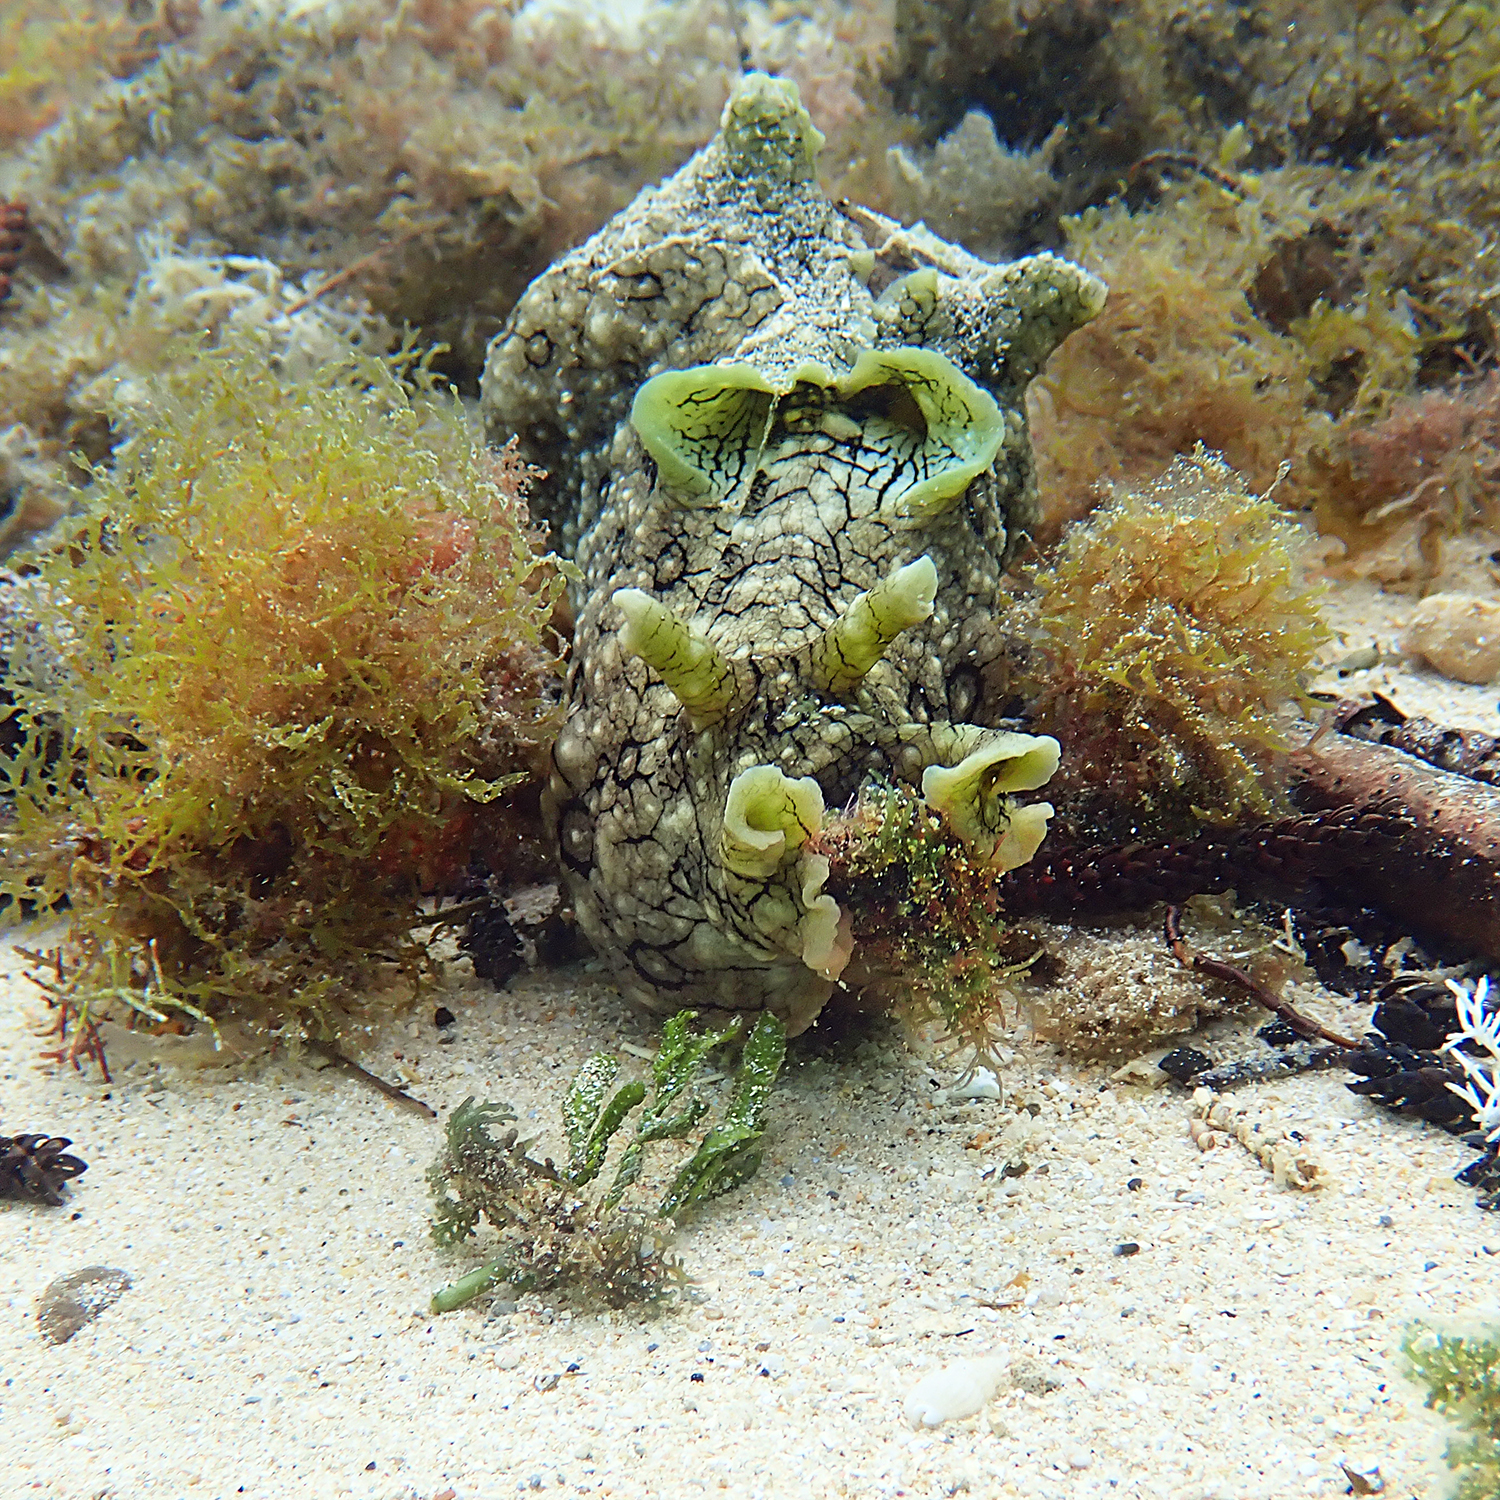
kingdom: Animalia
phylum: Mollusca
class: Gastropoda
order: Aplysiida
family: Aplysiidae
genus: Aplysia
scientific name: Aplysia argus
